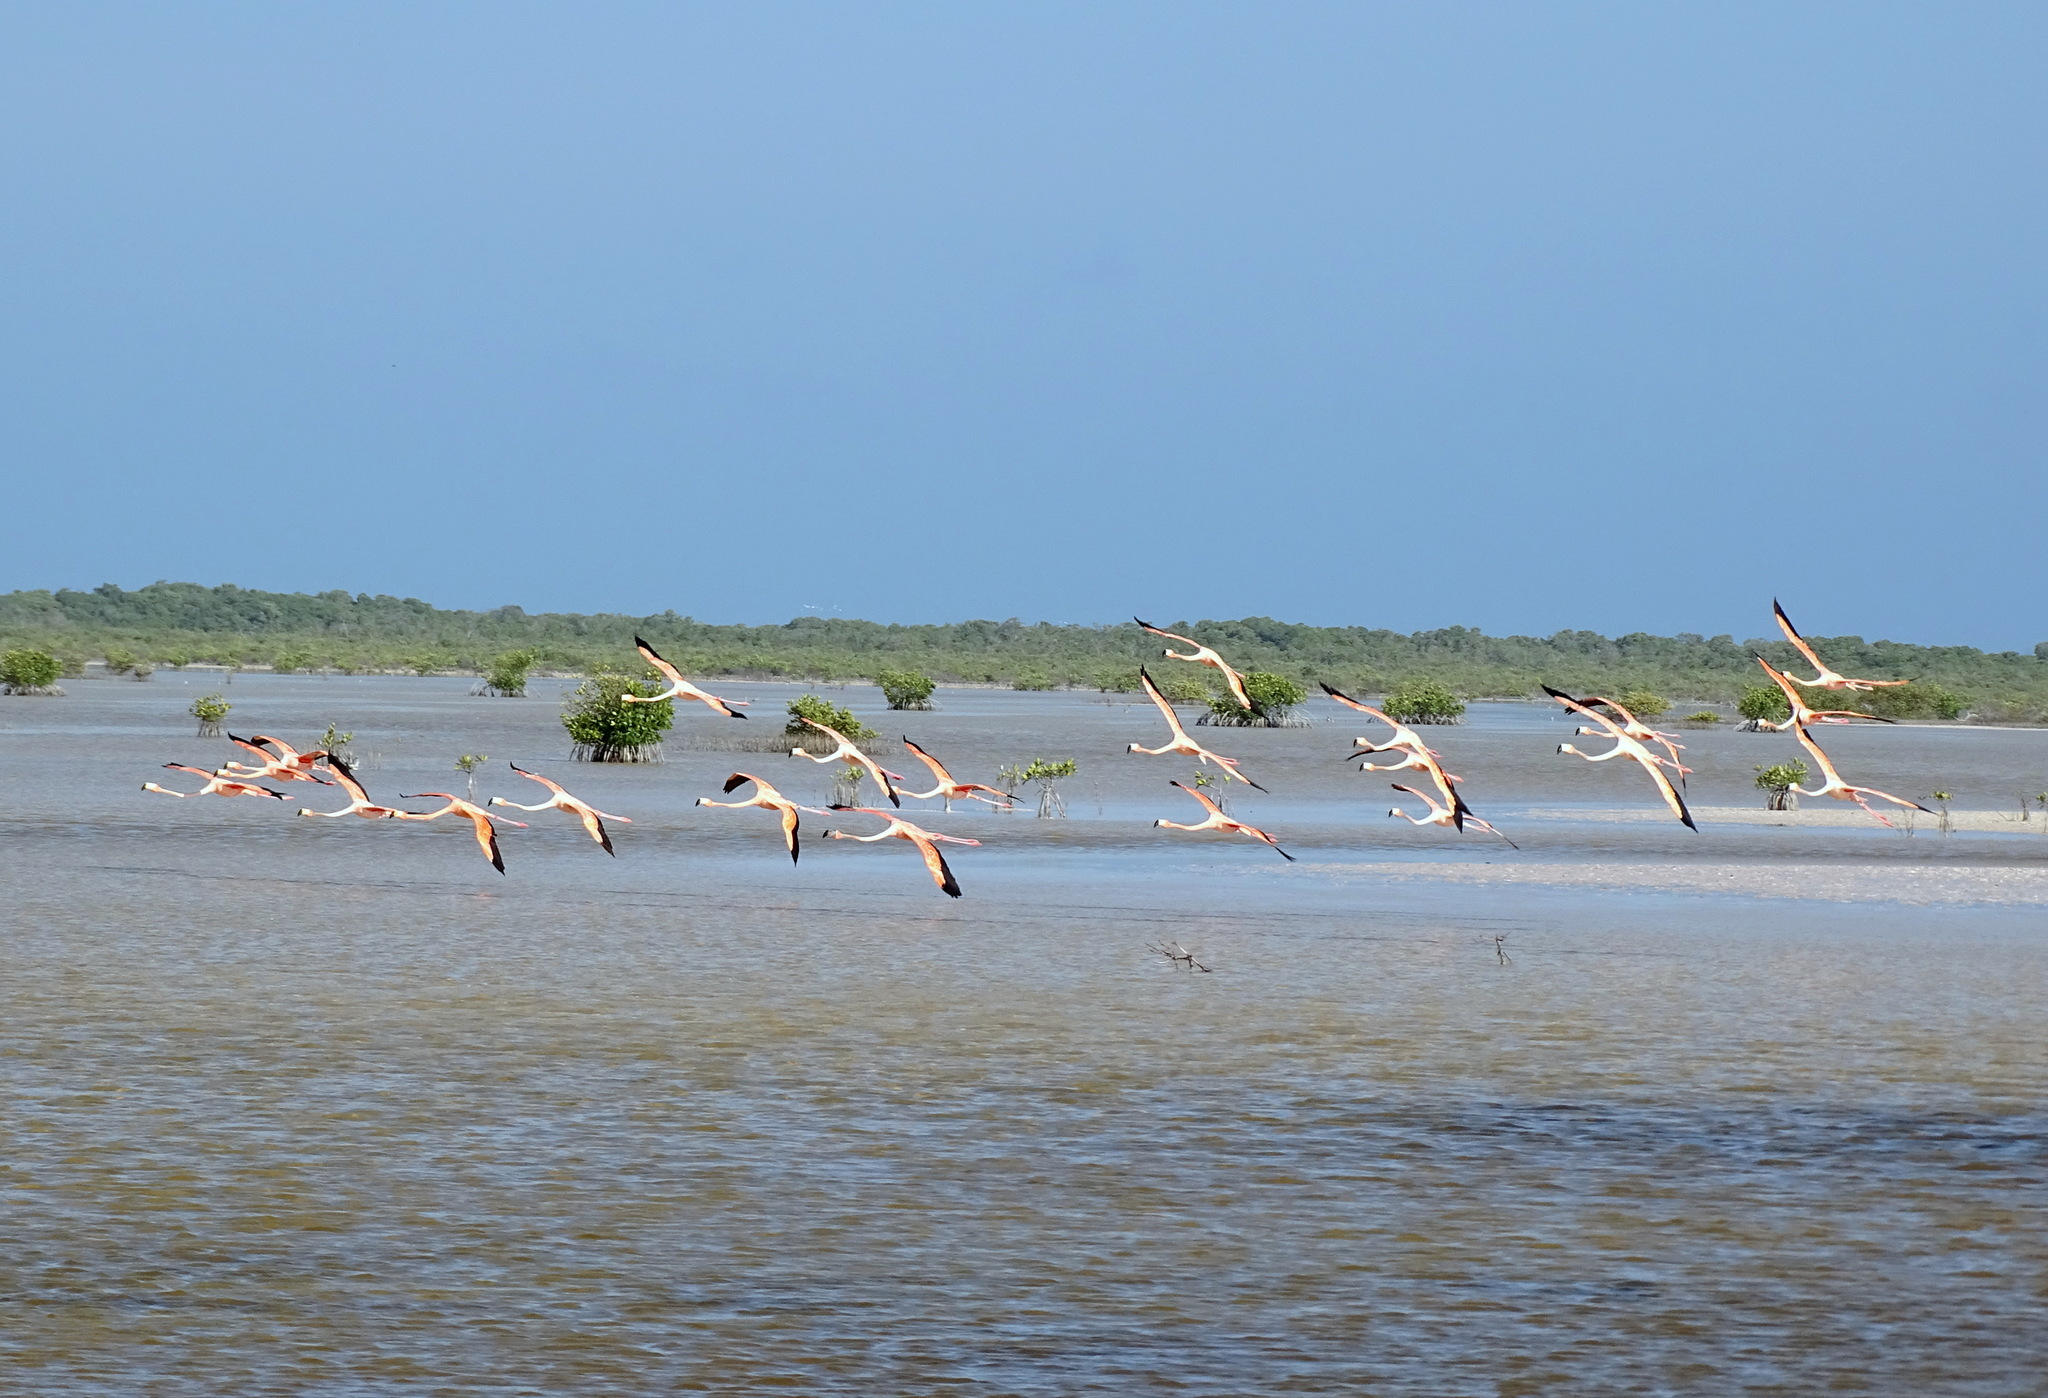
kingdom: Animalia
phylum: Chordata
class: Aves
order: Phoenicopteriformes
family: Phoenicopteridae
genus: Phoenicopterus
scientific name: Phoenicopterus ruber
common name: American flamingo
